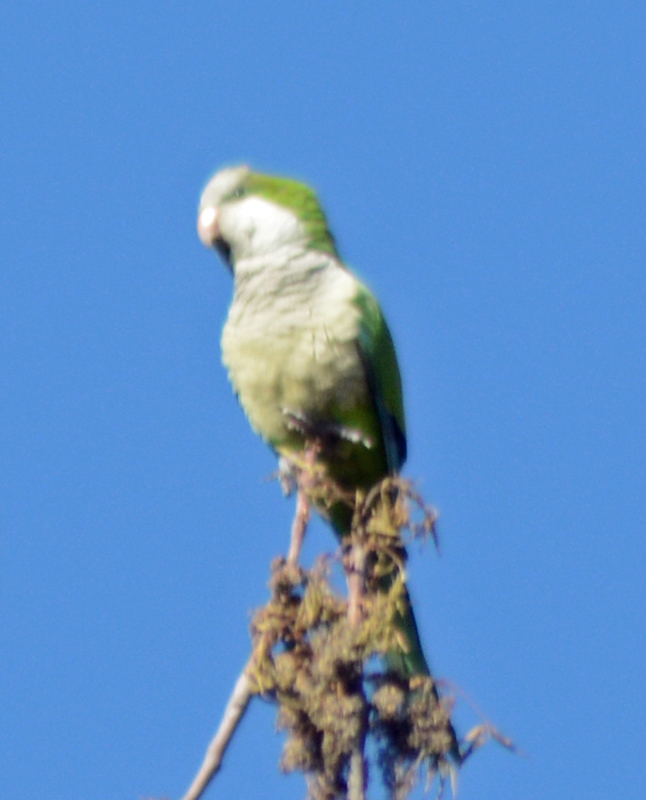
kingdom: Animalia
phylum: Chordata
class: Aves
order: Psittaciformes
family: Psittacidae
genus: Myiopsitta
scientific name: Myiopsitta monachus
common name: Monk parakeet
